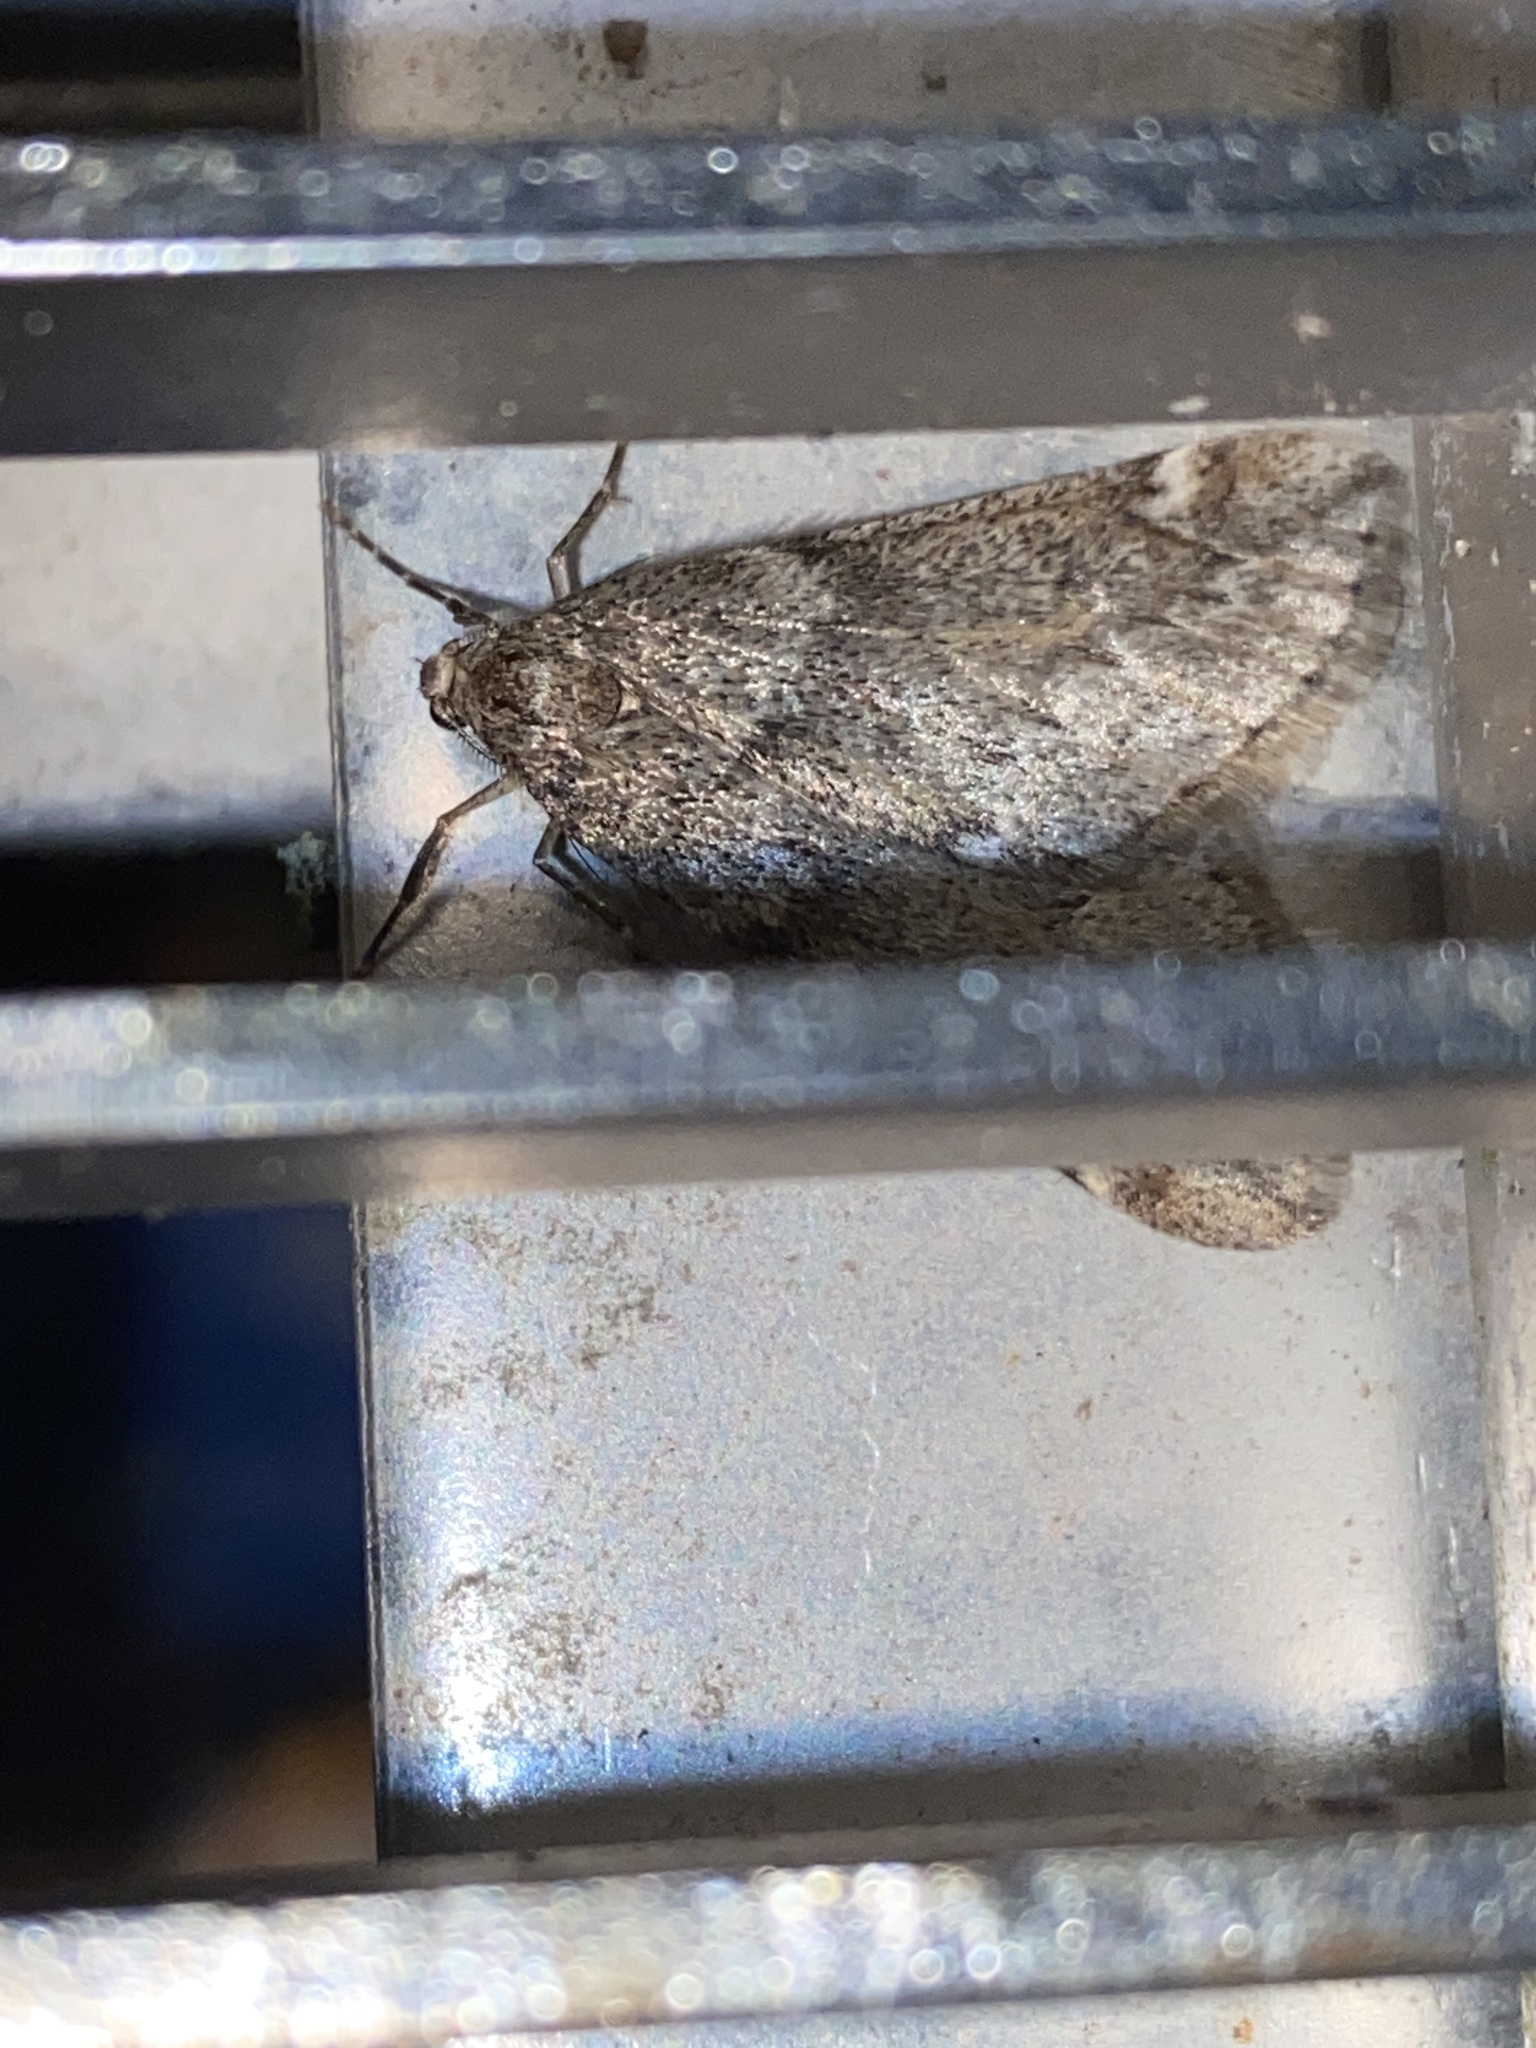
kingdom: Animalia
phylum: Arthropoda
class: Insecta
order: Lepidoptera
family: Geometridae
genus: Alsophila
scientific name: Alsophila aescularia
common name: March moth
